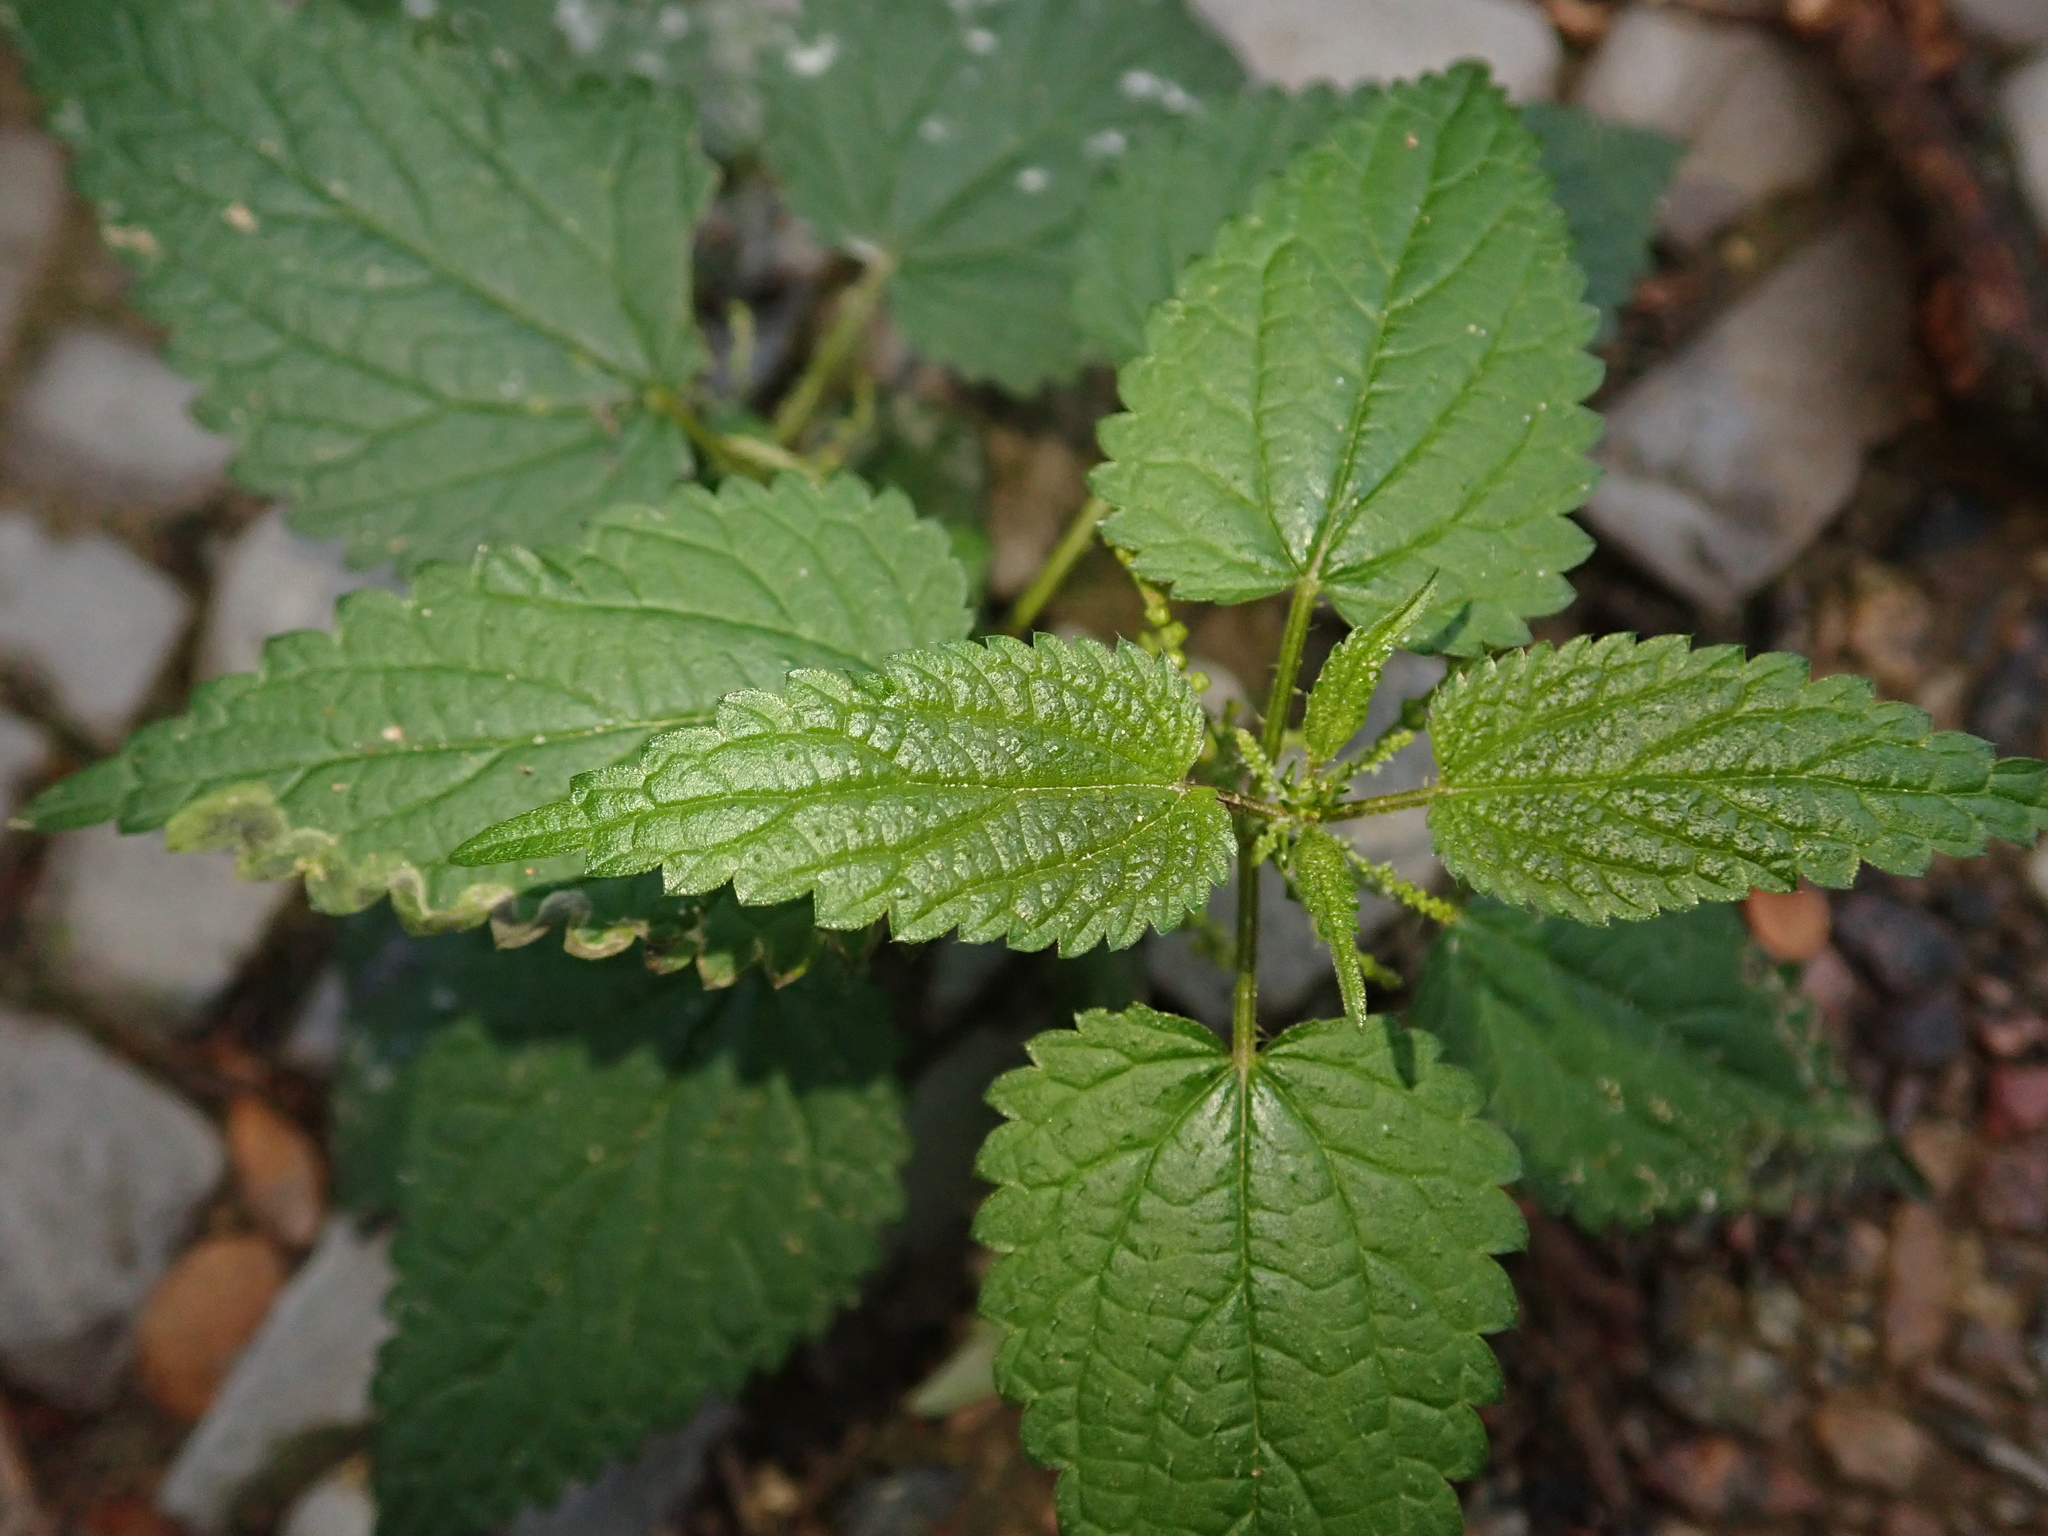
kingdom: Plantae
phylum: Tracheophyta
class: Magnoliopsida
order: Rosales
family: Urticaceae
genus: Urtica
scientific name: Urtica dioica
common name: Common nettle
